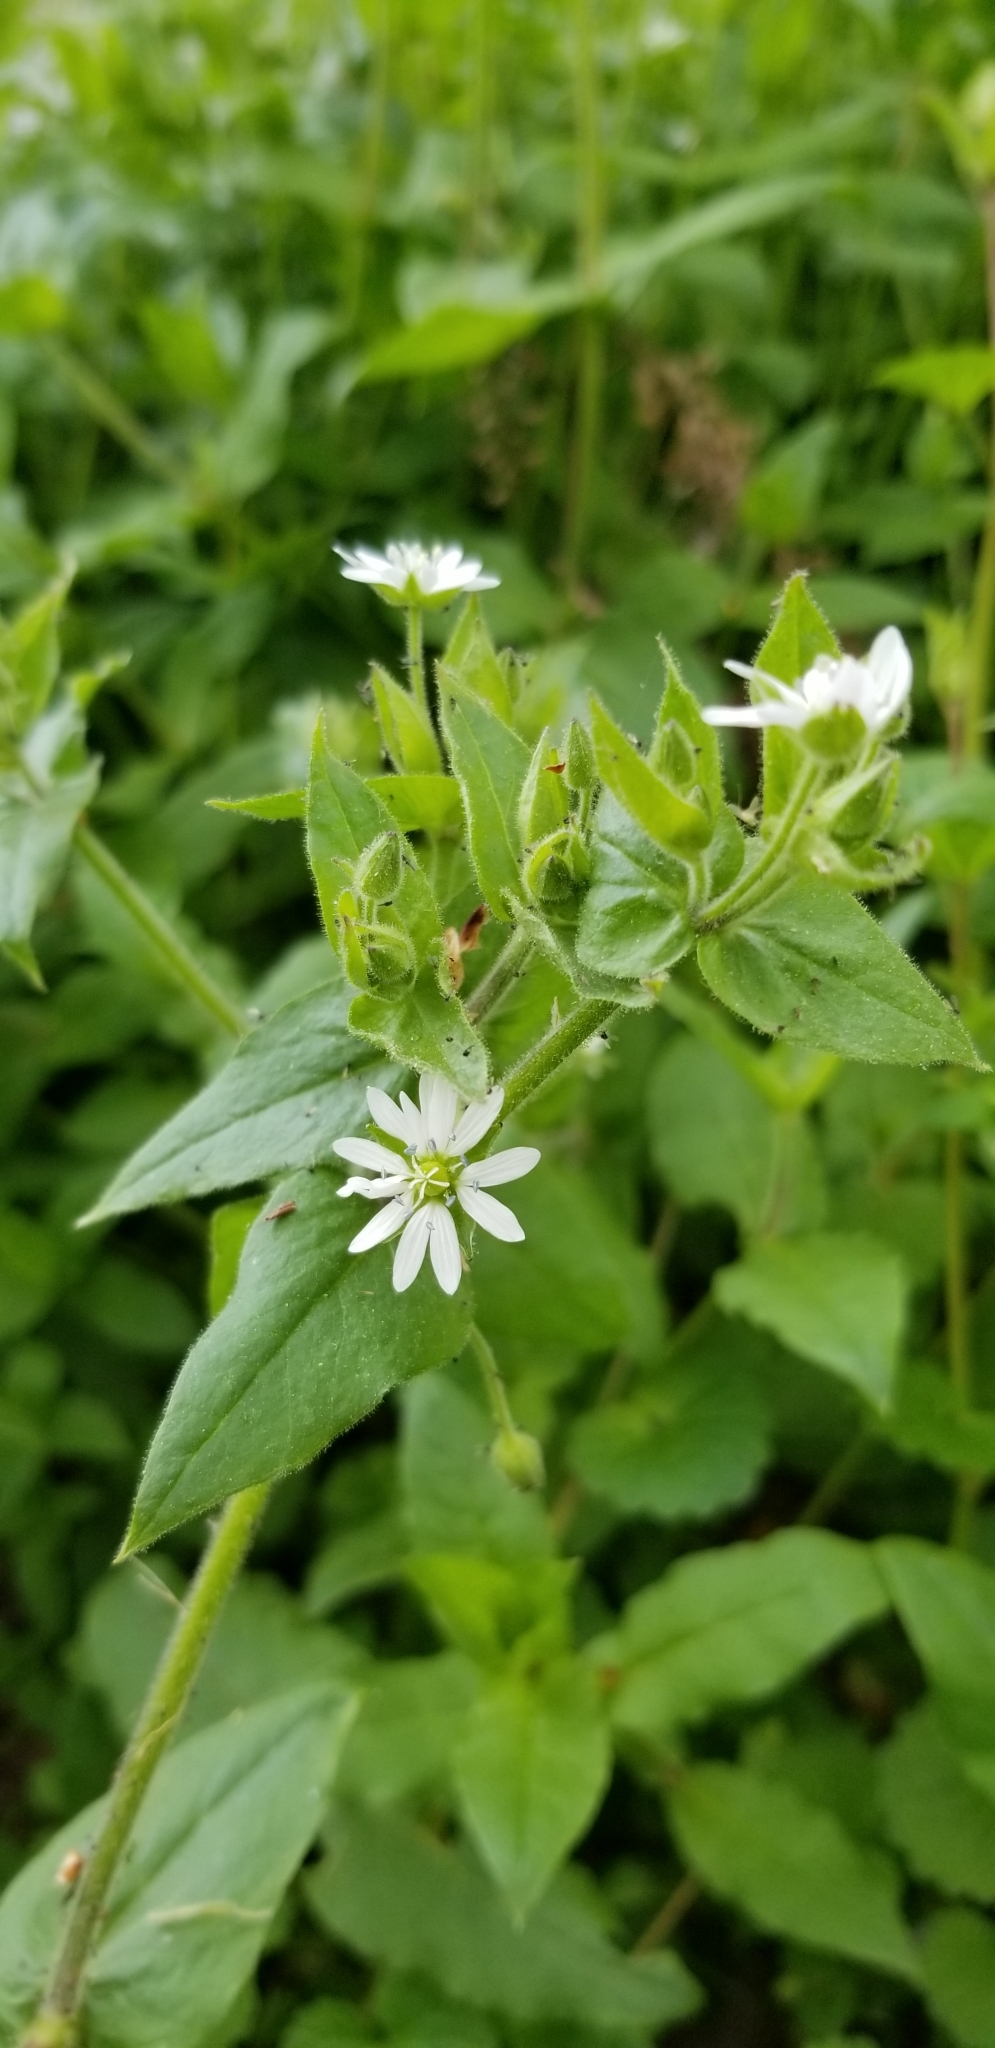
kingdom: Plantae
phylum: Tracheophyta
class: Magnoliopsida
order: Caryophyllales
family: Caryophyllaceae
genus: Stellaria
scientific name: Stellaria aquatica
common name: Water chickweed
